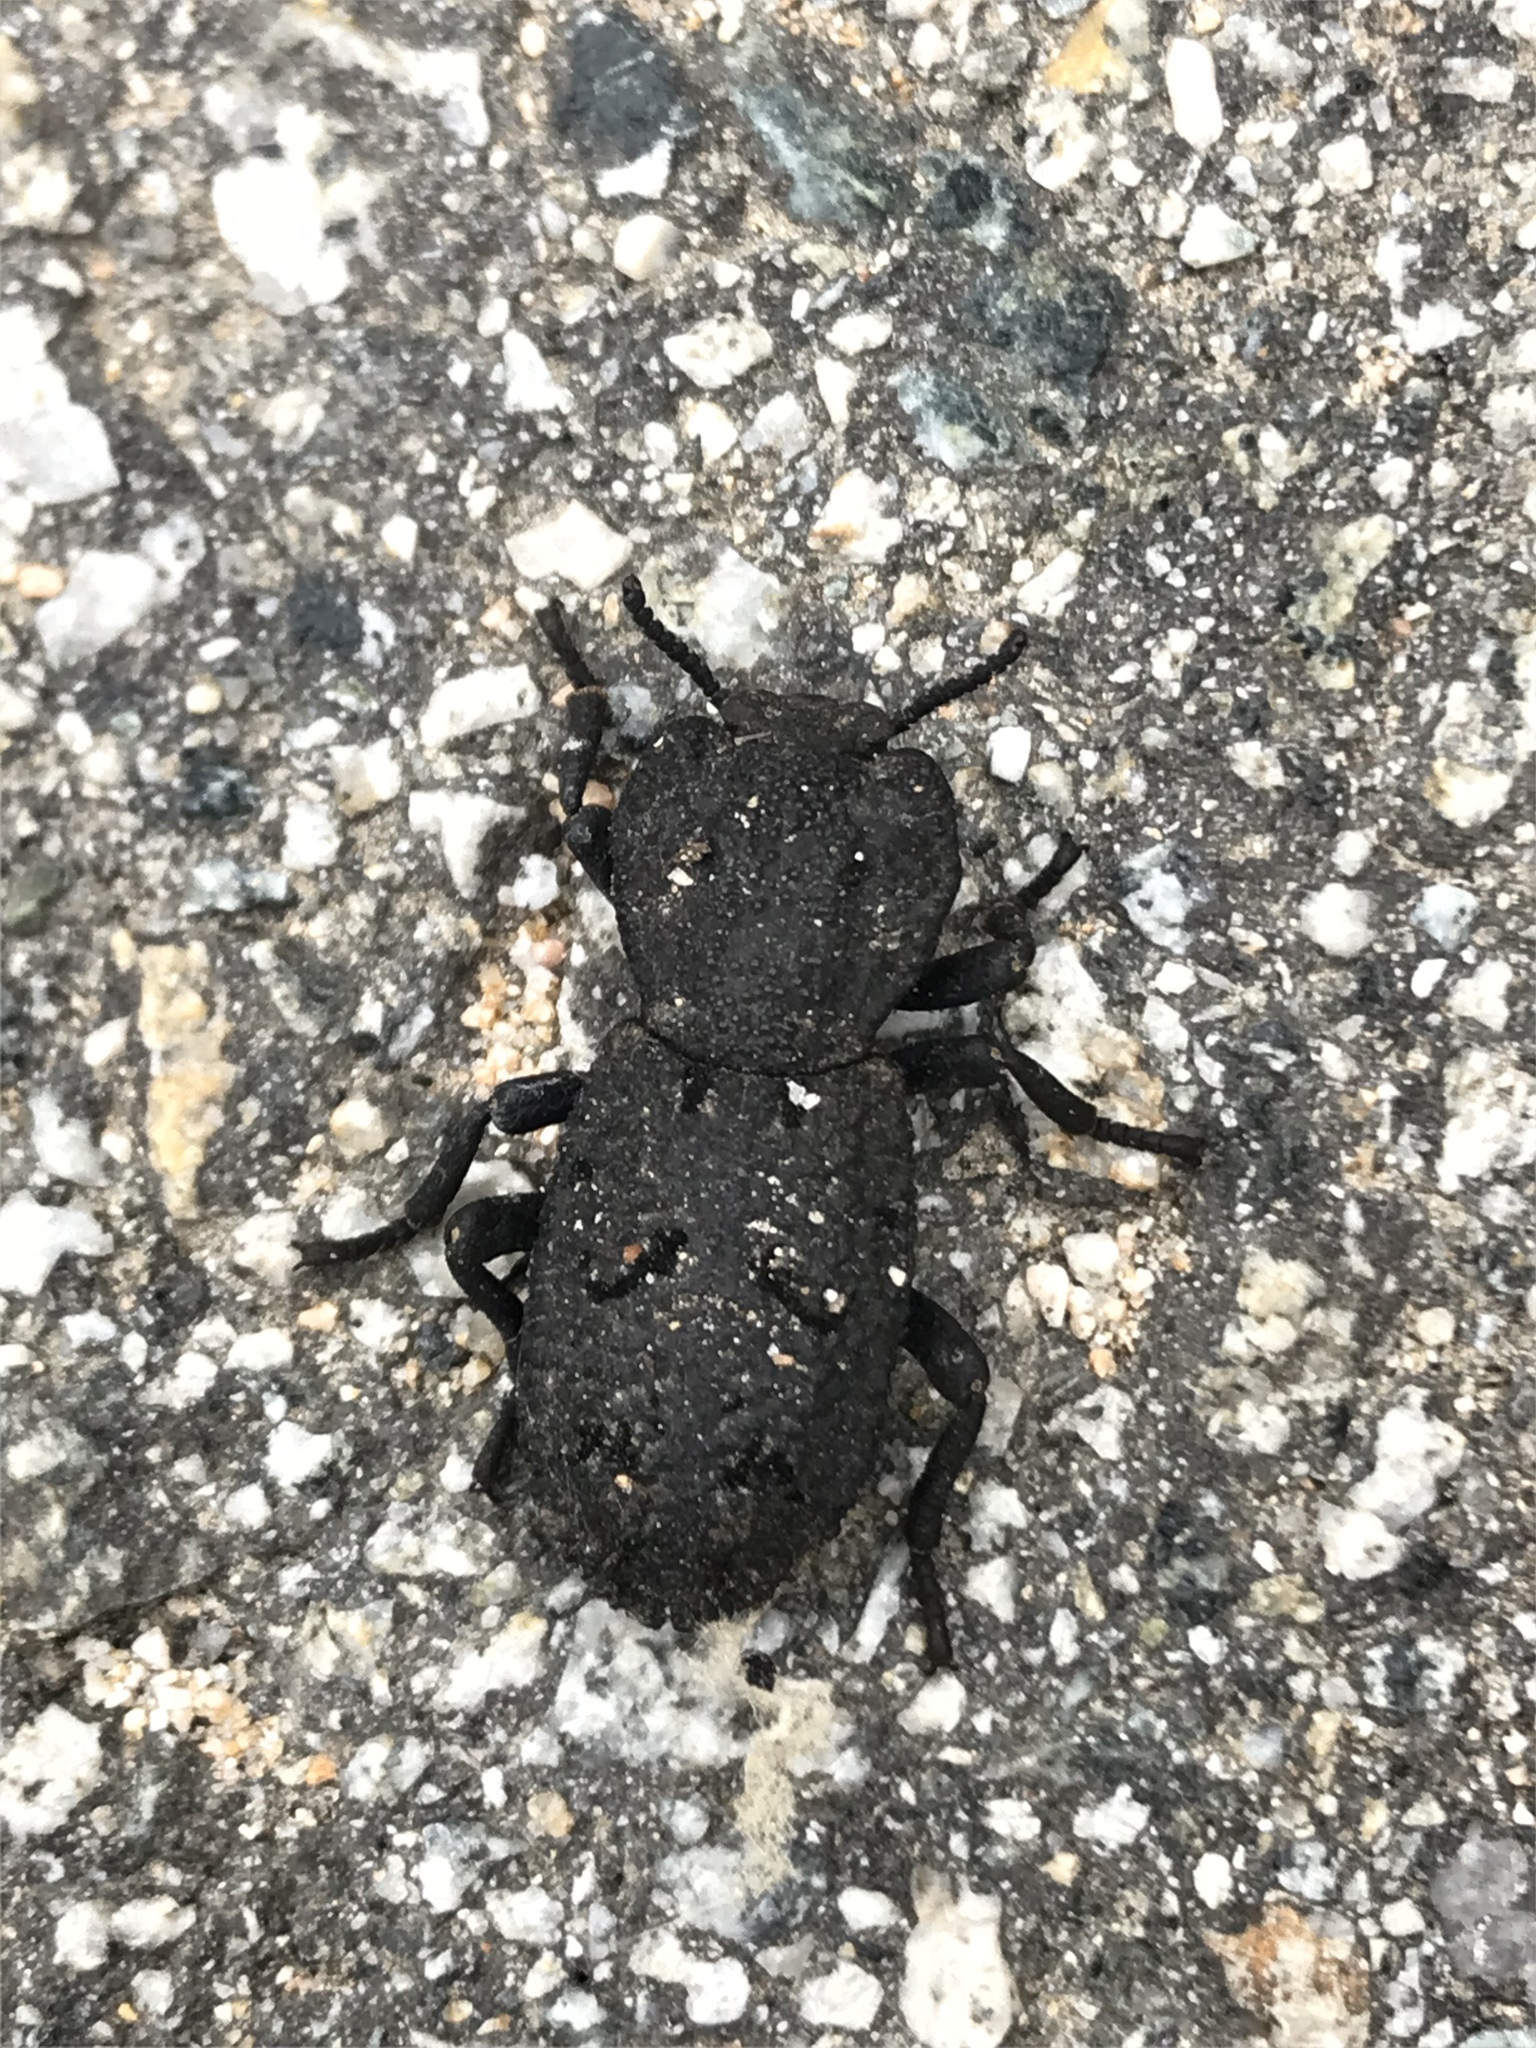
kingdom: Animalia
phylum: Arthropoda
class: Insecta
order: Coleoptera
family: Zopheridae
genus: Phloeodes
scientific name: Phloeodes diabolicus
